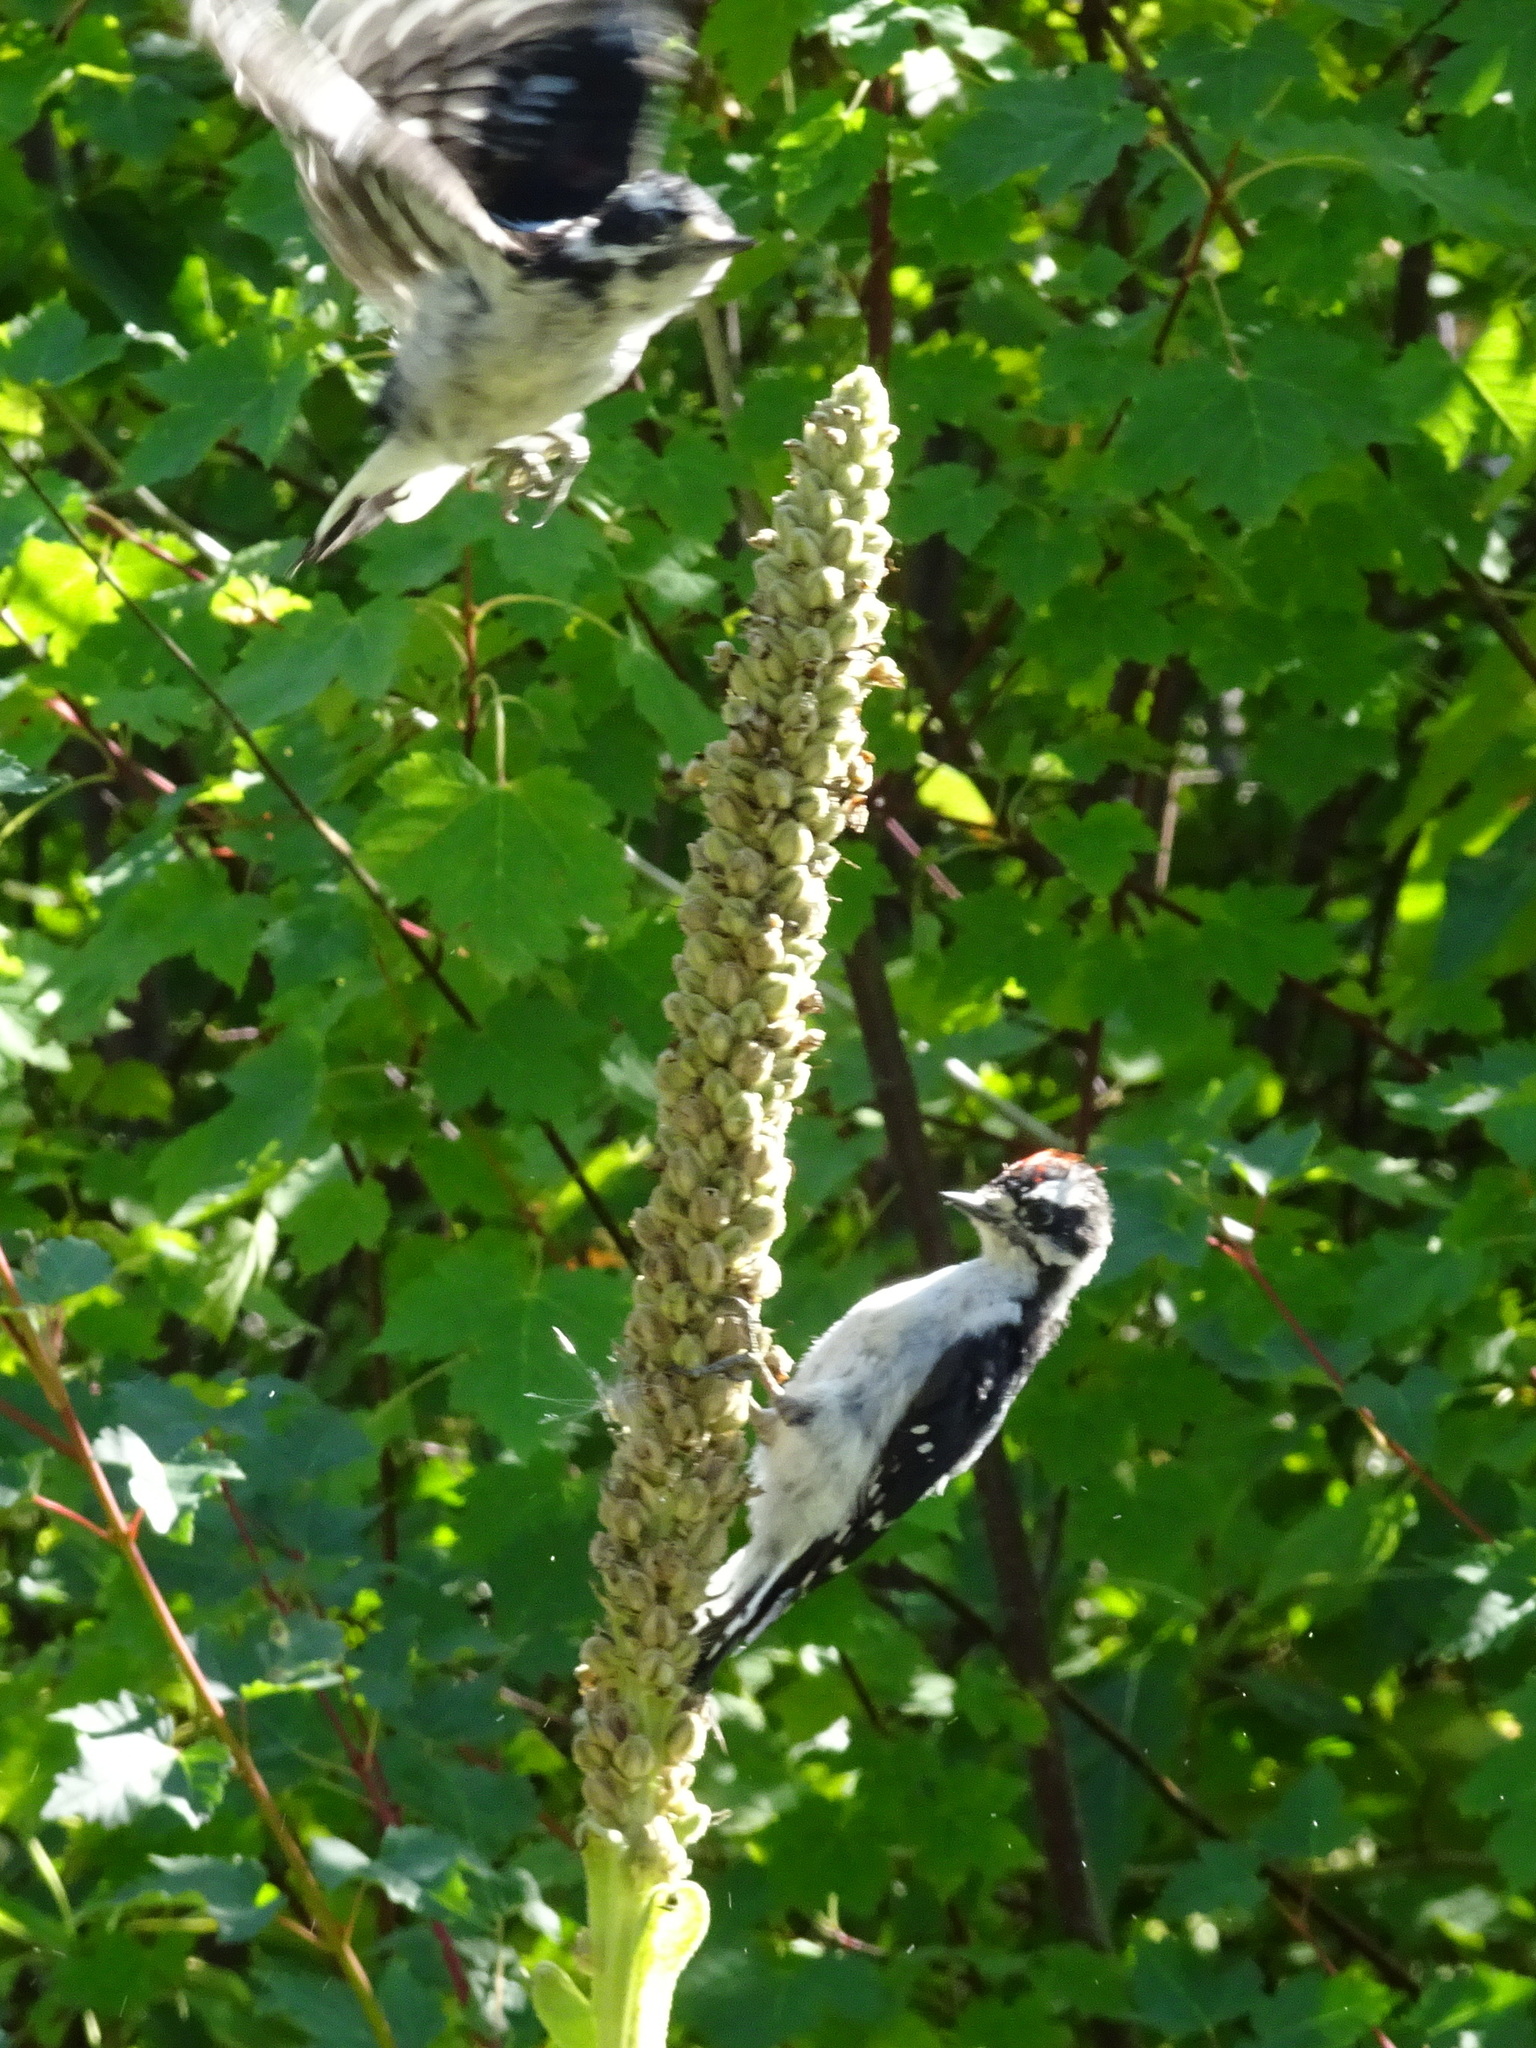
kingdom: Animalia
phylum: Chordata
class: Aves
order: Piciformes
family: Picidae
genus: Dryobates
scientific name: Dryobates pubescens
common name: Downy woodpecker
